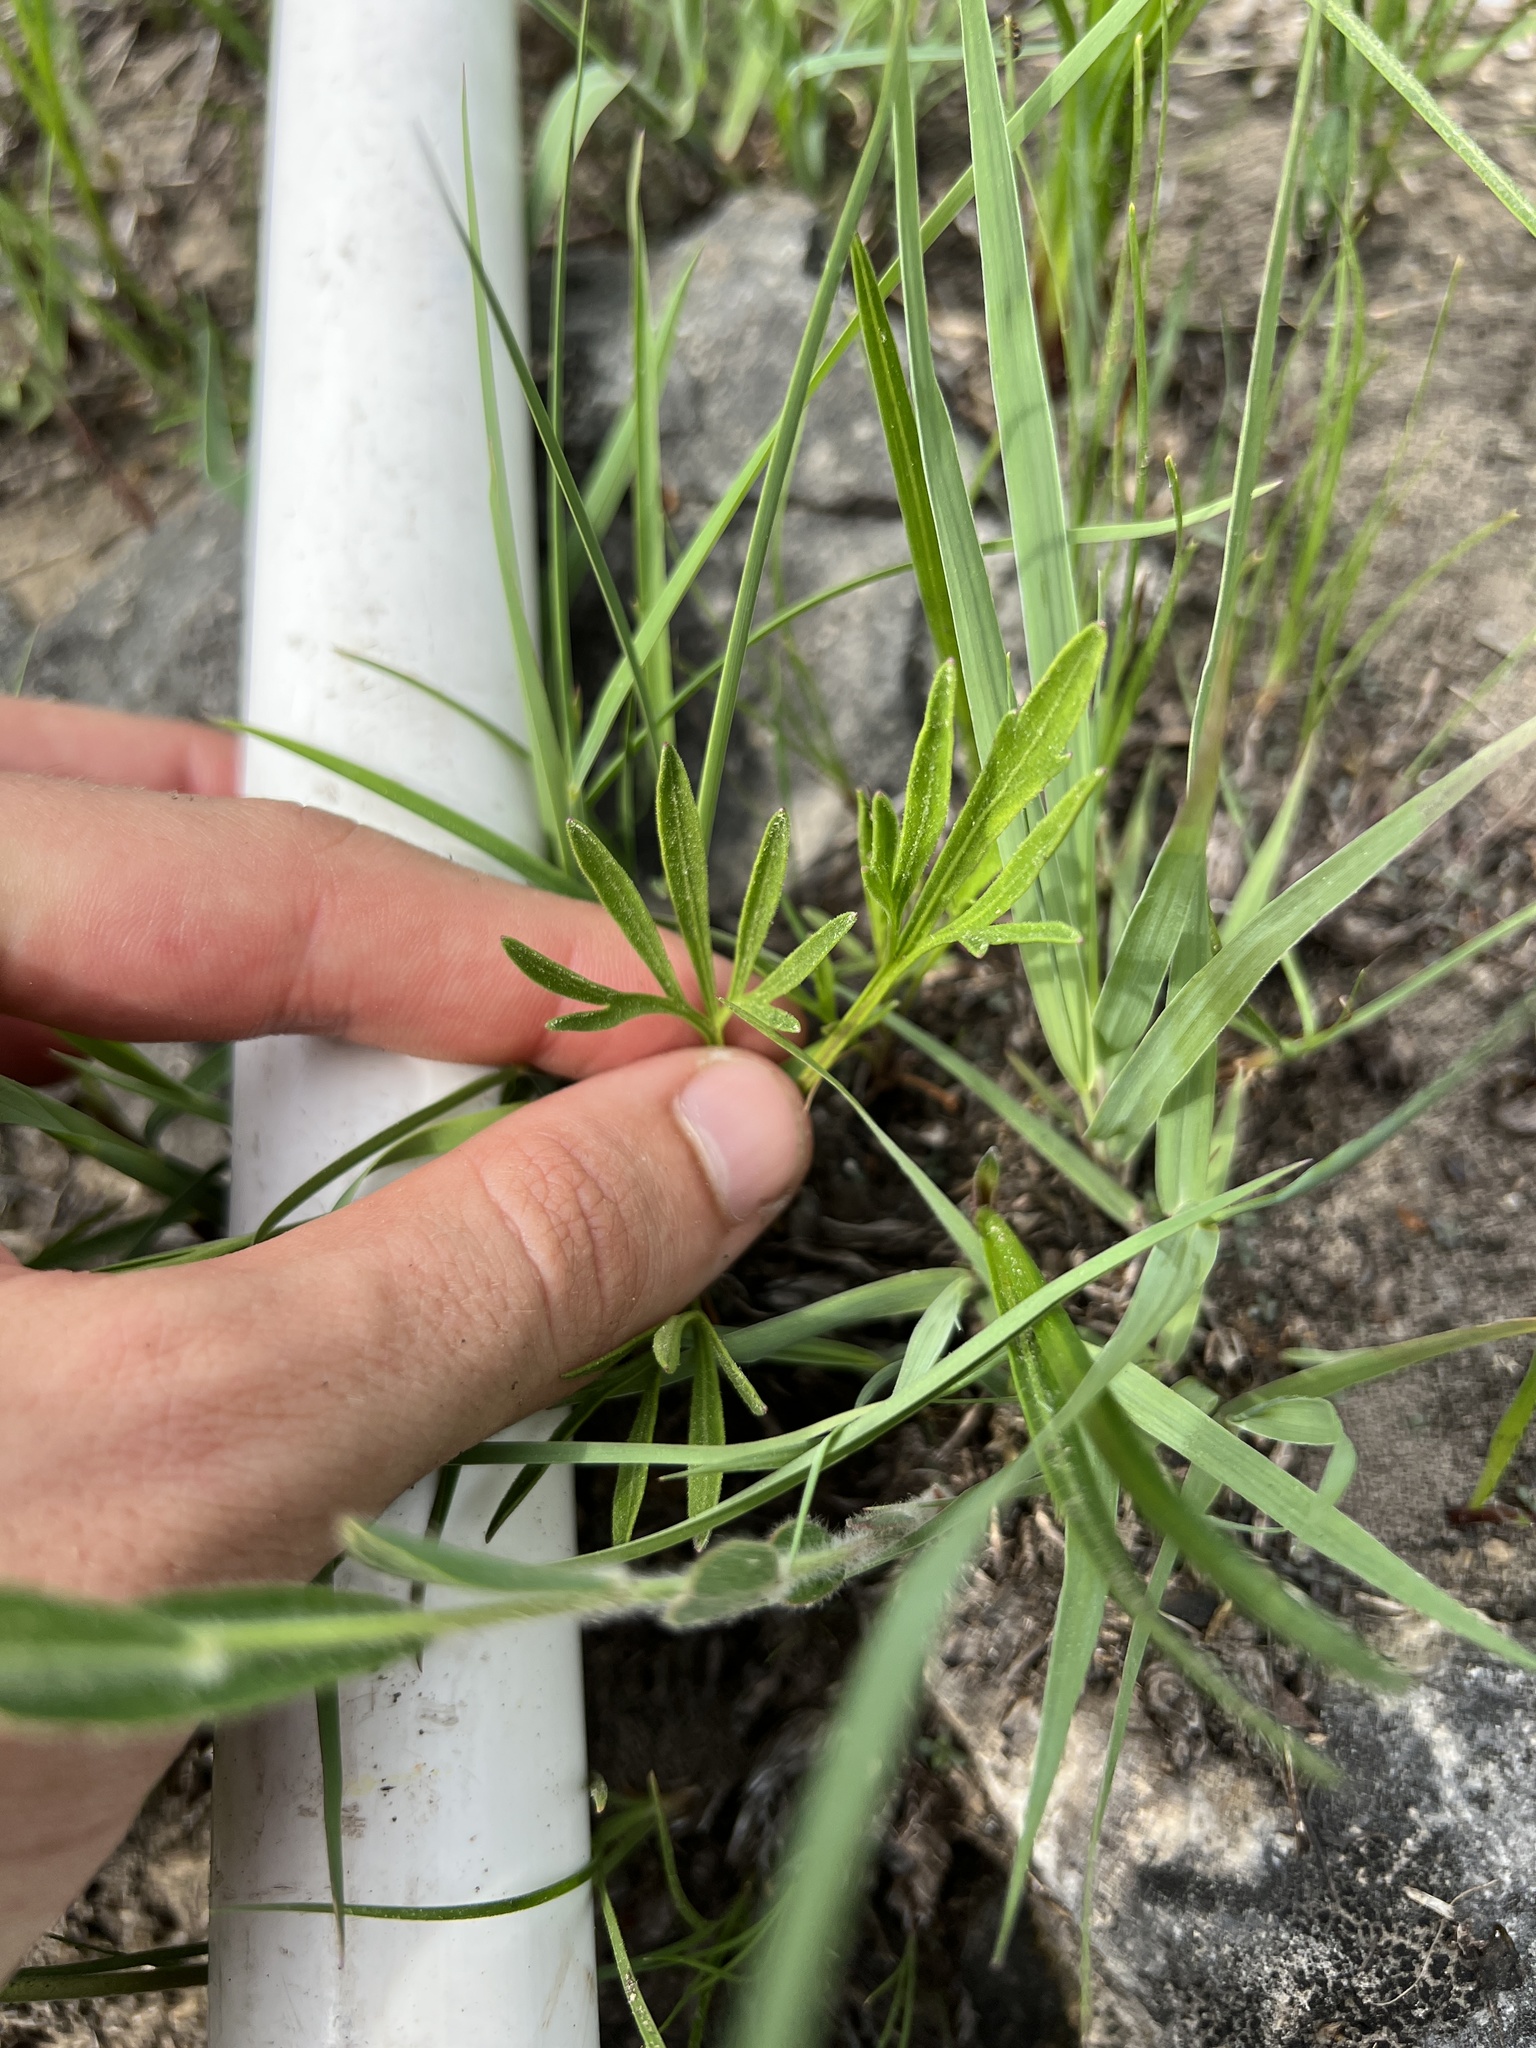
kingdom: Plantae
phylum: Tracheophyta
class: Magnoliopsida
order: Malpighiales
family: Violaceae
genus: Viola
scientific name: Viola pedata
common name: Pansy violet
